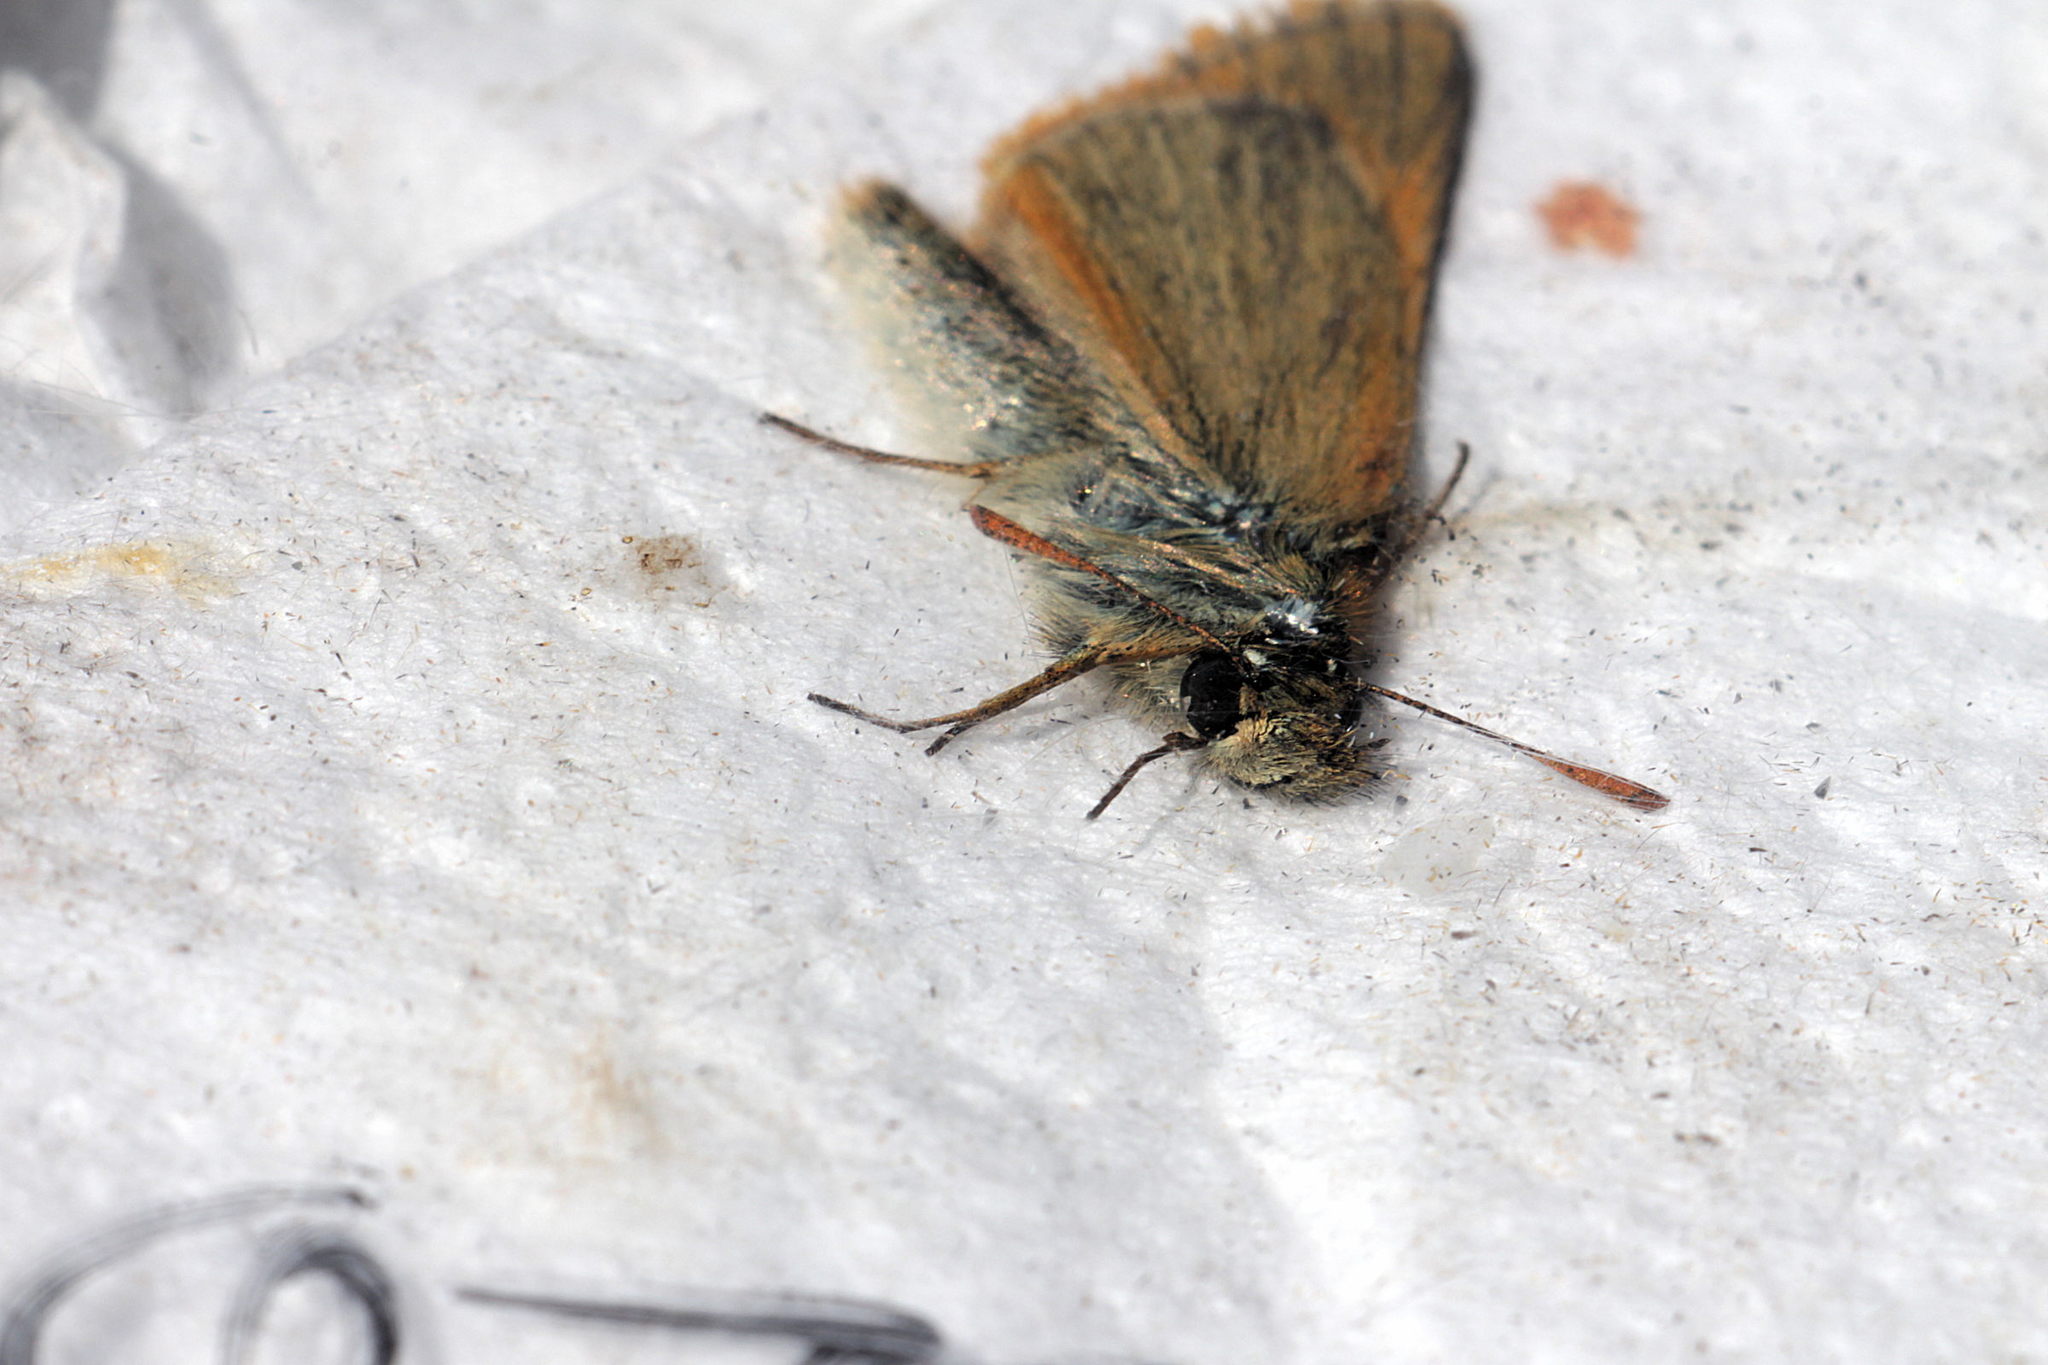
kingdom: Animalia
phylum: Arthropoda
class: Insecta
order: Lepidoptera
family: Hesperiidae
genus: Thymelicus
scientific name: Thymelicus sylvestris
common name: Small skipper
